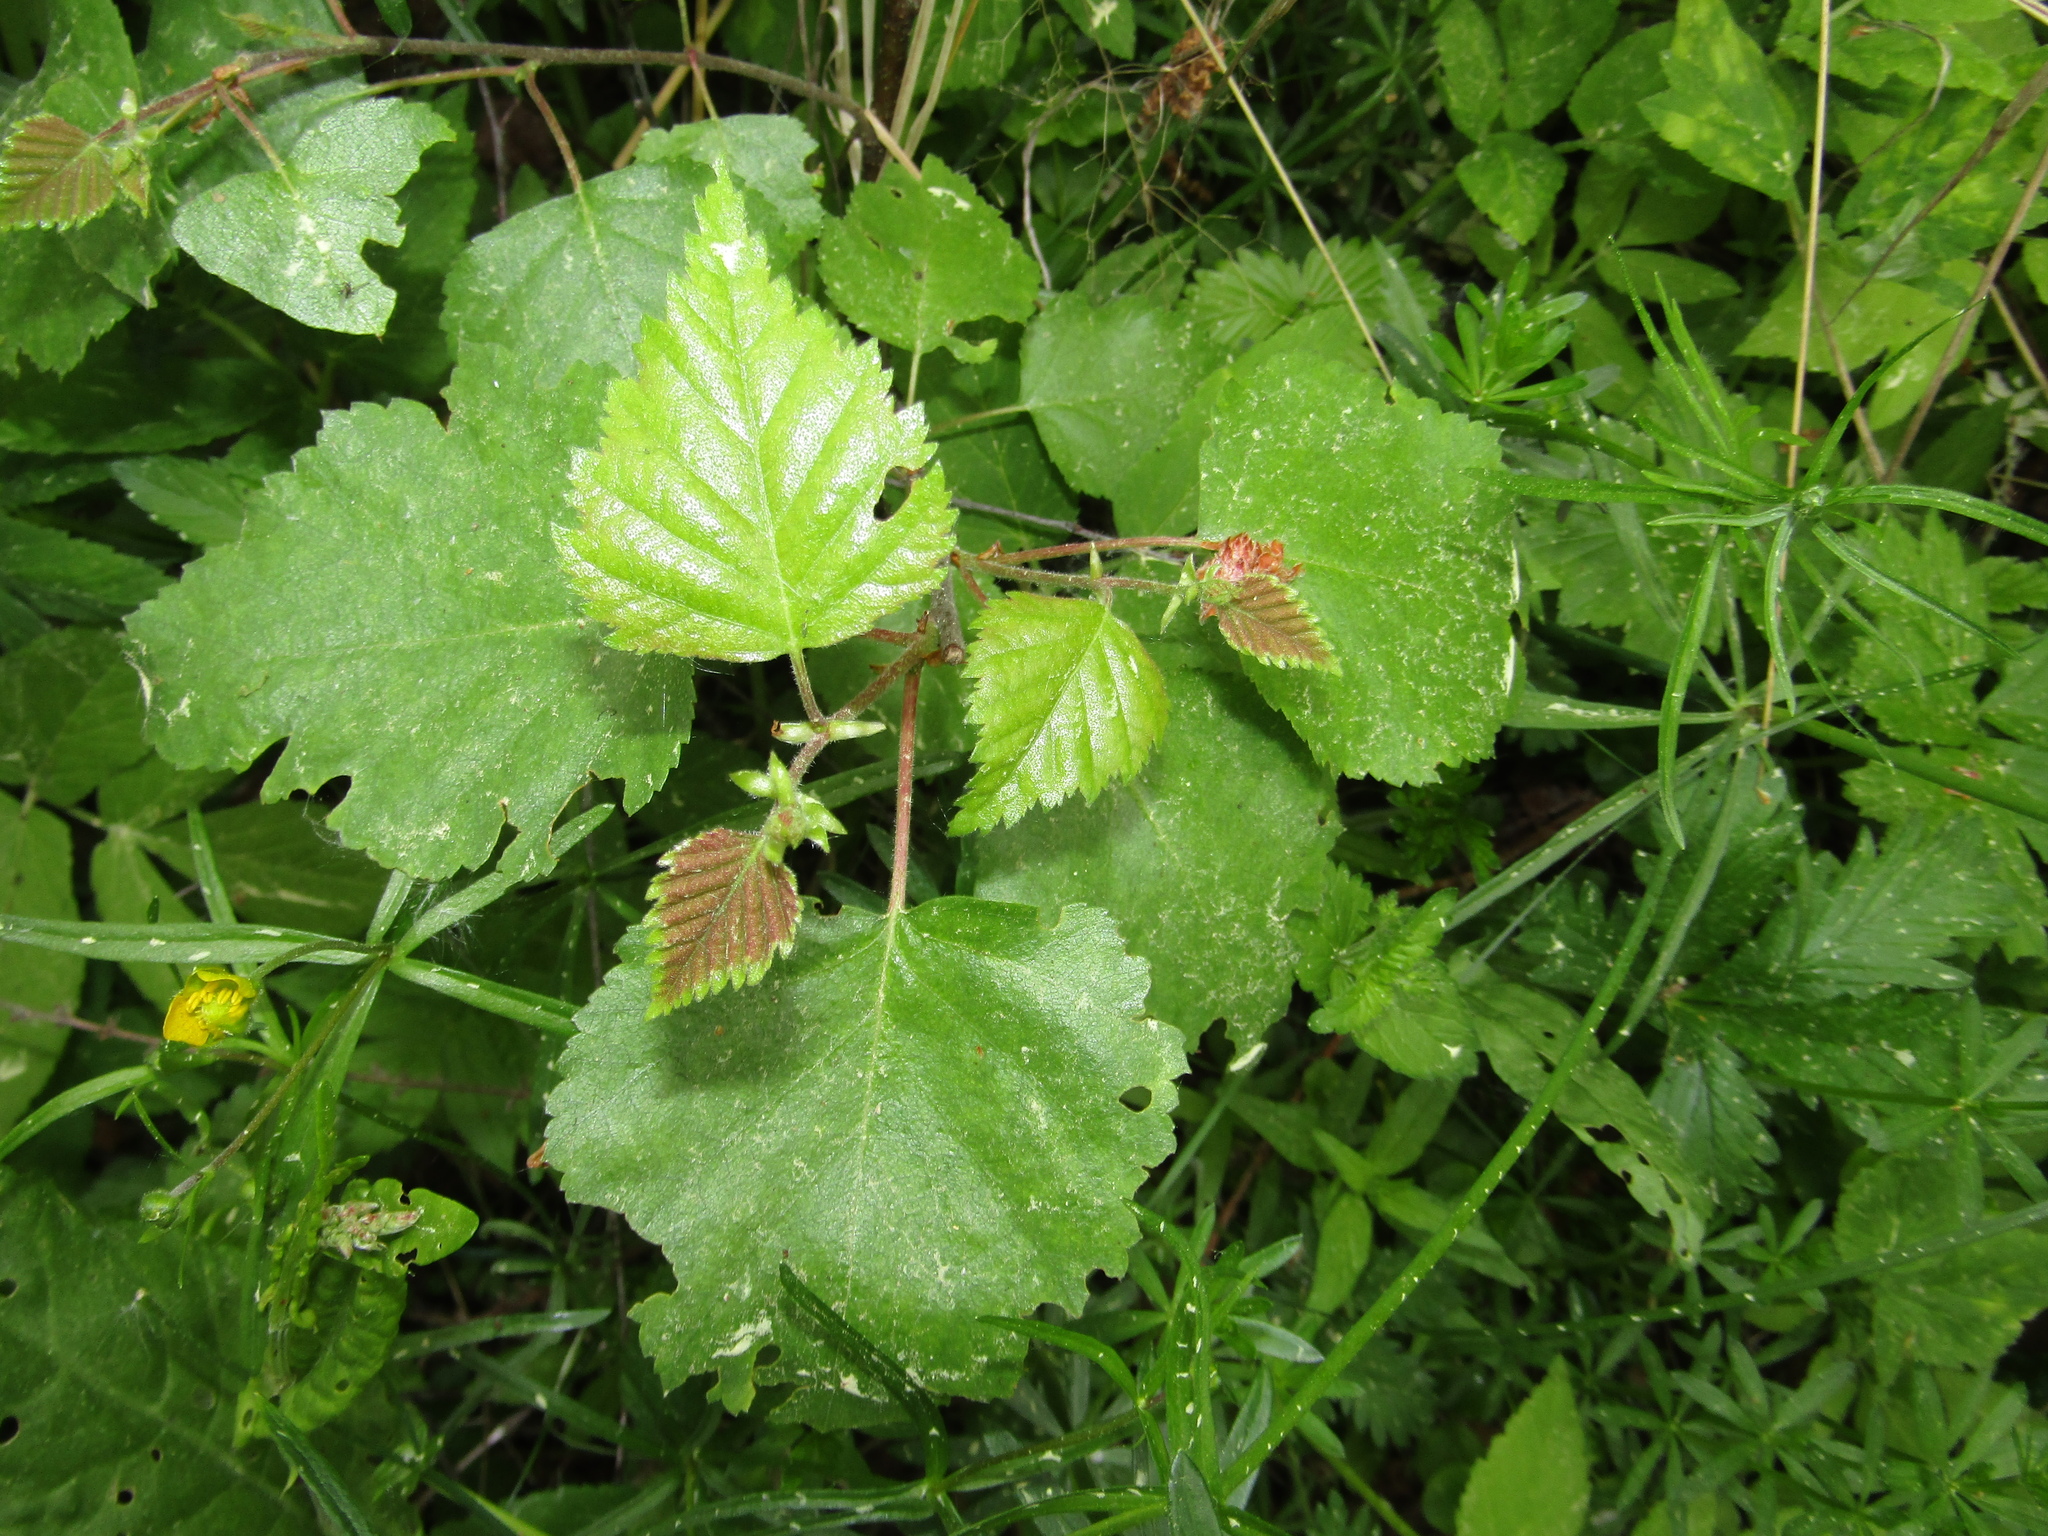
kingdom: Plantae
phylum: Tracheophyta
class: Magnoliopsida
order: Fagales
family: Betulaceae
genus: Betula
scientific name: Betula pubescens
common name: Downy birch
